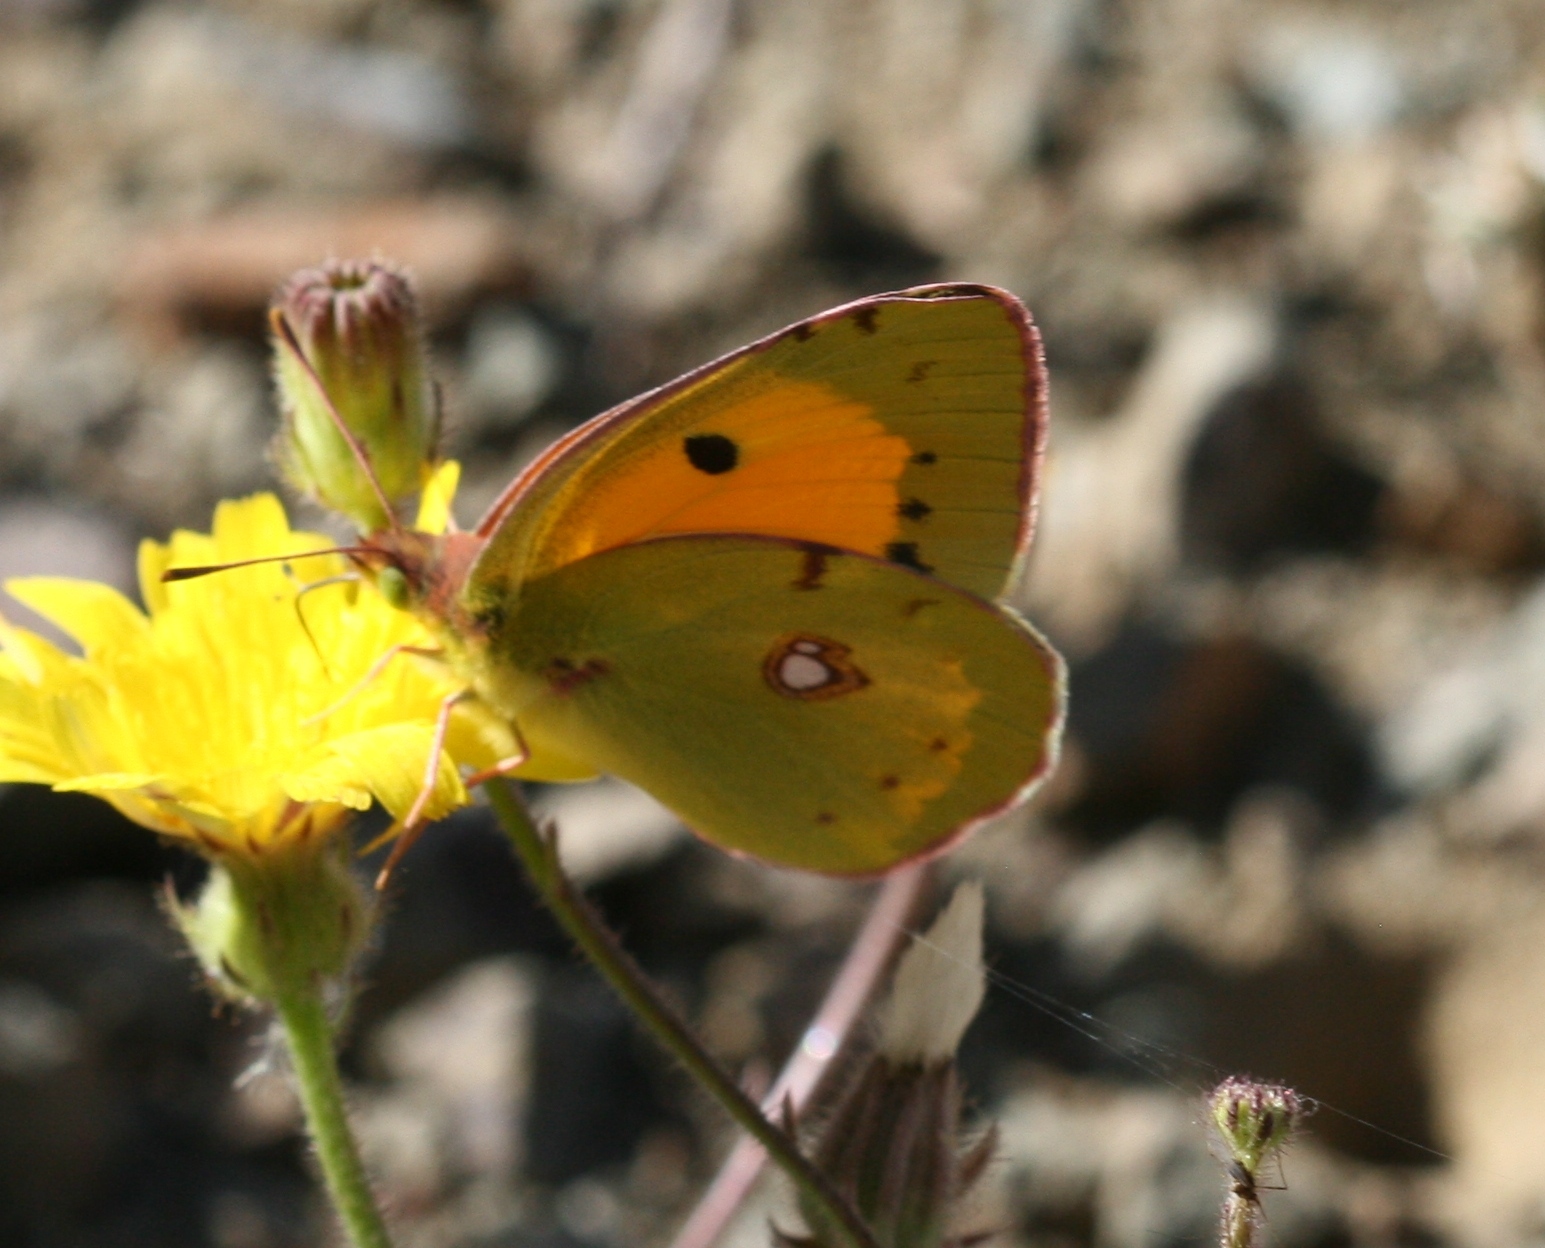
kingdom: Animalia
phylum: Arthropoda
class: Insecta
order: Lepidoptera
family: Pieridae
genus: Colias
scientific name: Colias croceus
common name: Clouded yellow
